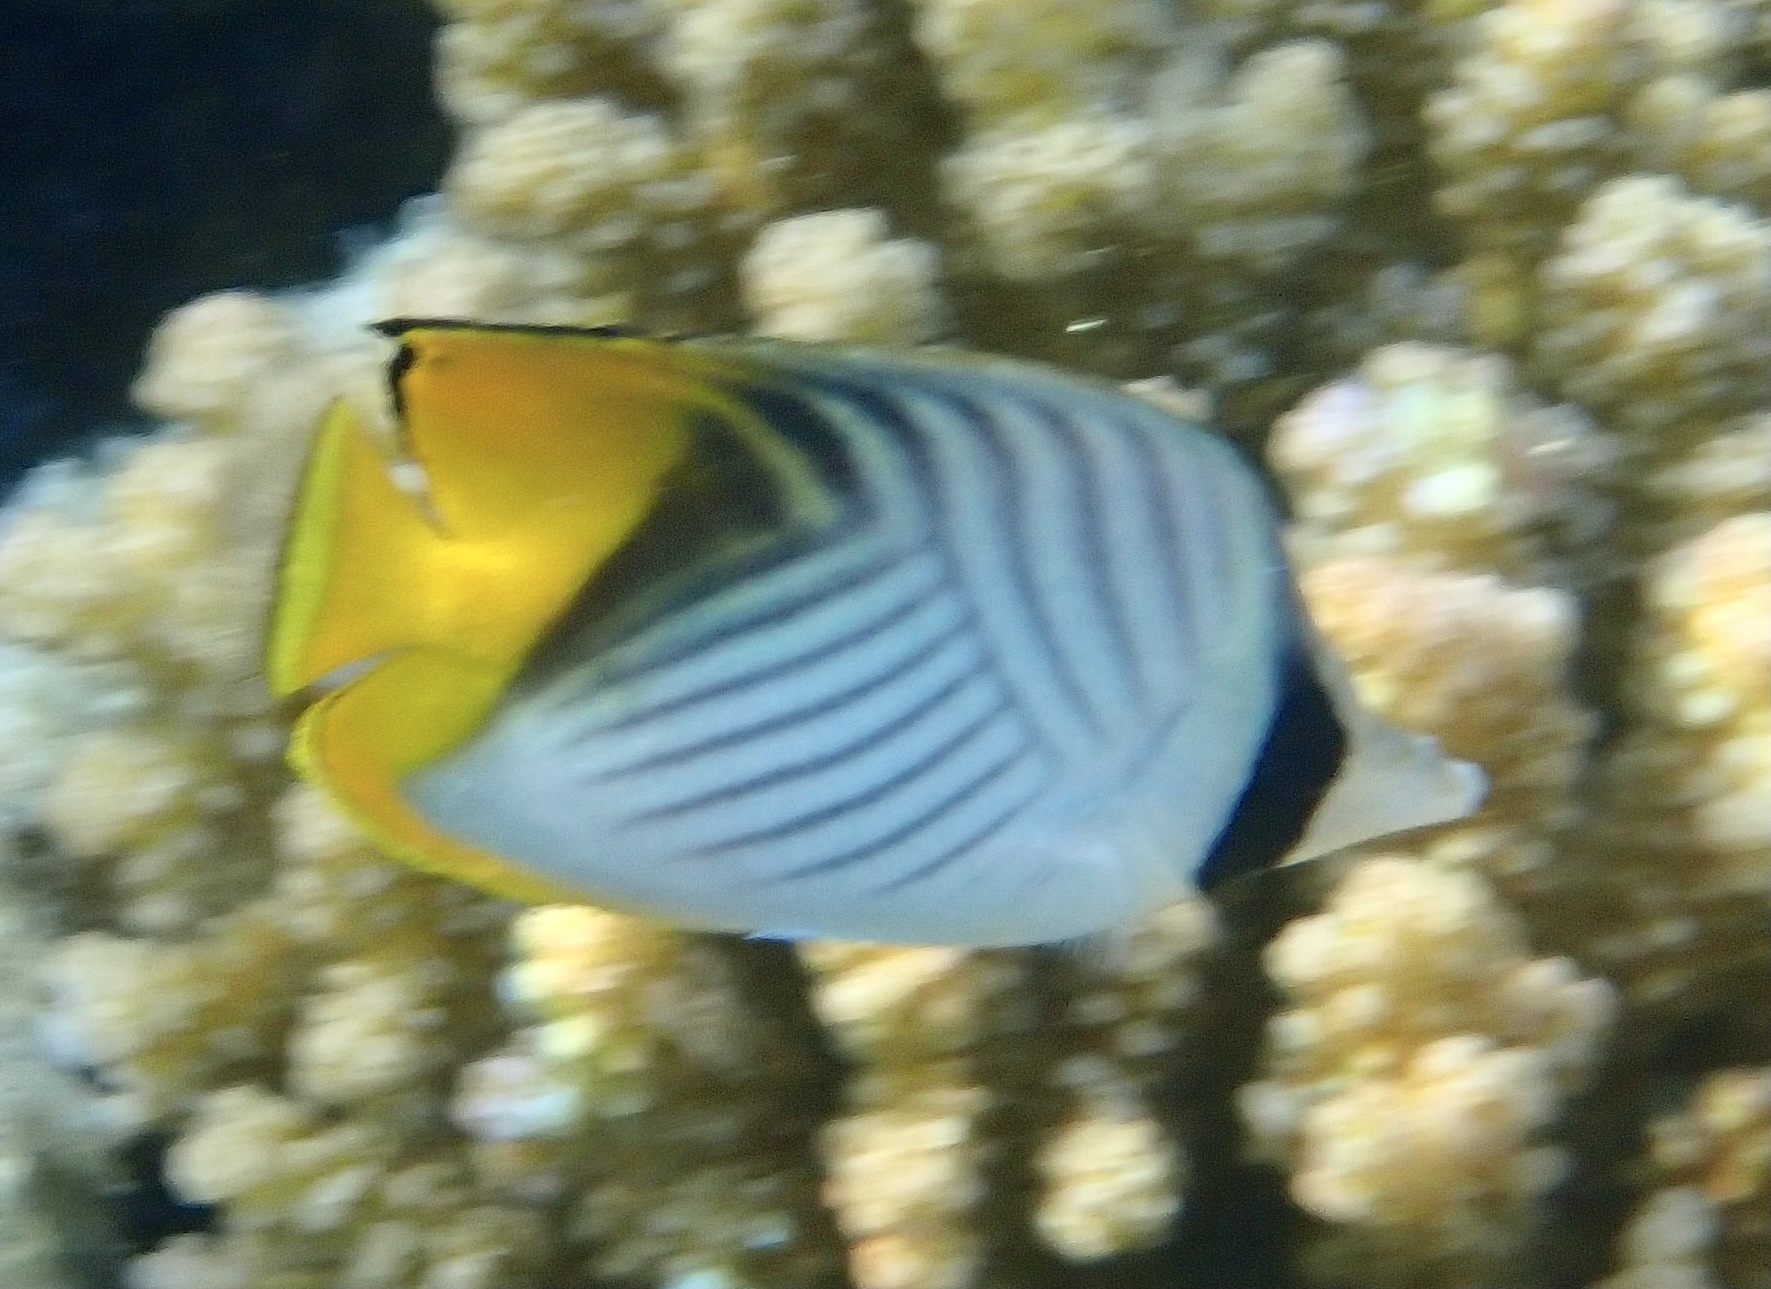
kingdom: Animalia
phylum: Chordata
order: Perciformes
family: Chaetodontidae
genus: Chaetodon
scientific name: Chaetodon auriga
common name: Threadfin butterflyfish
